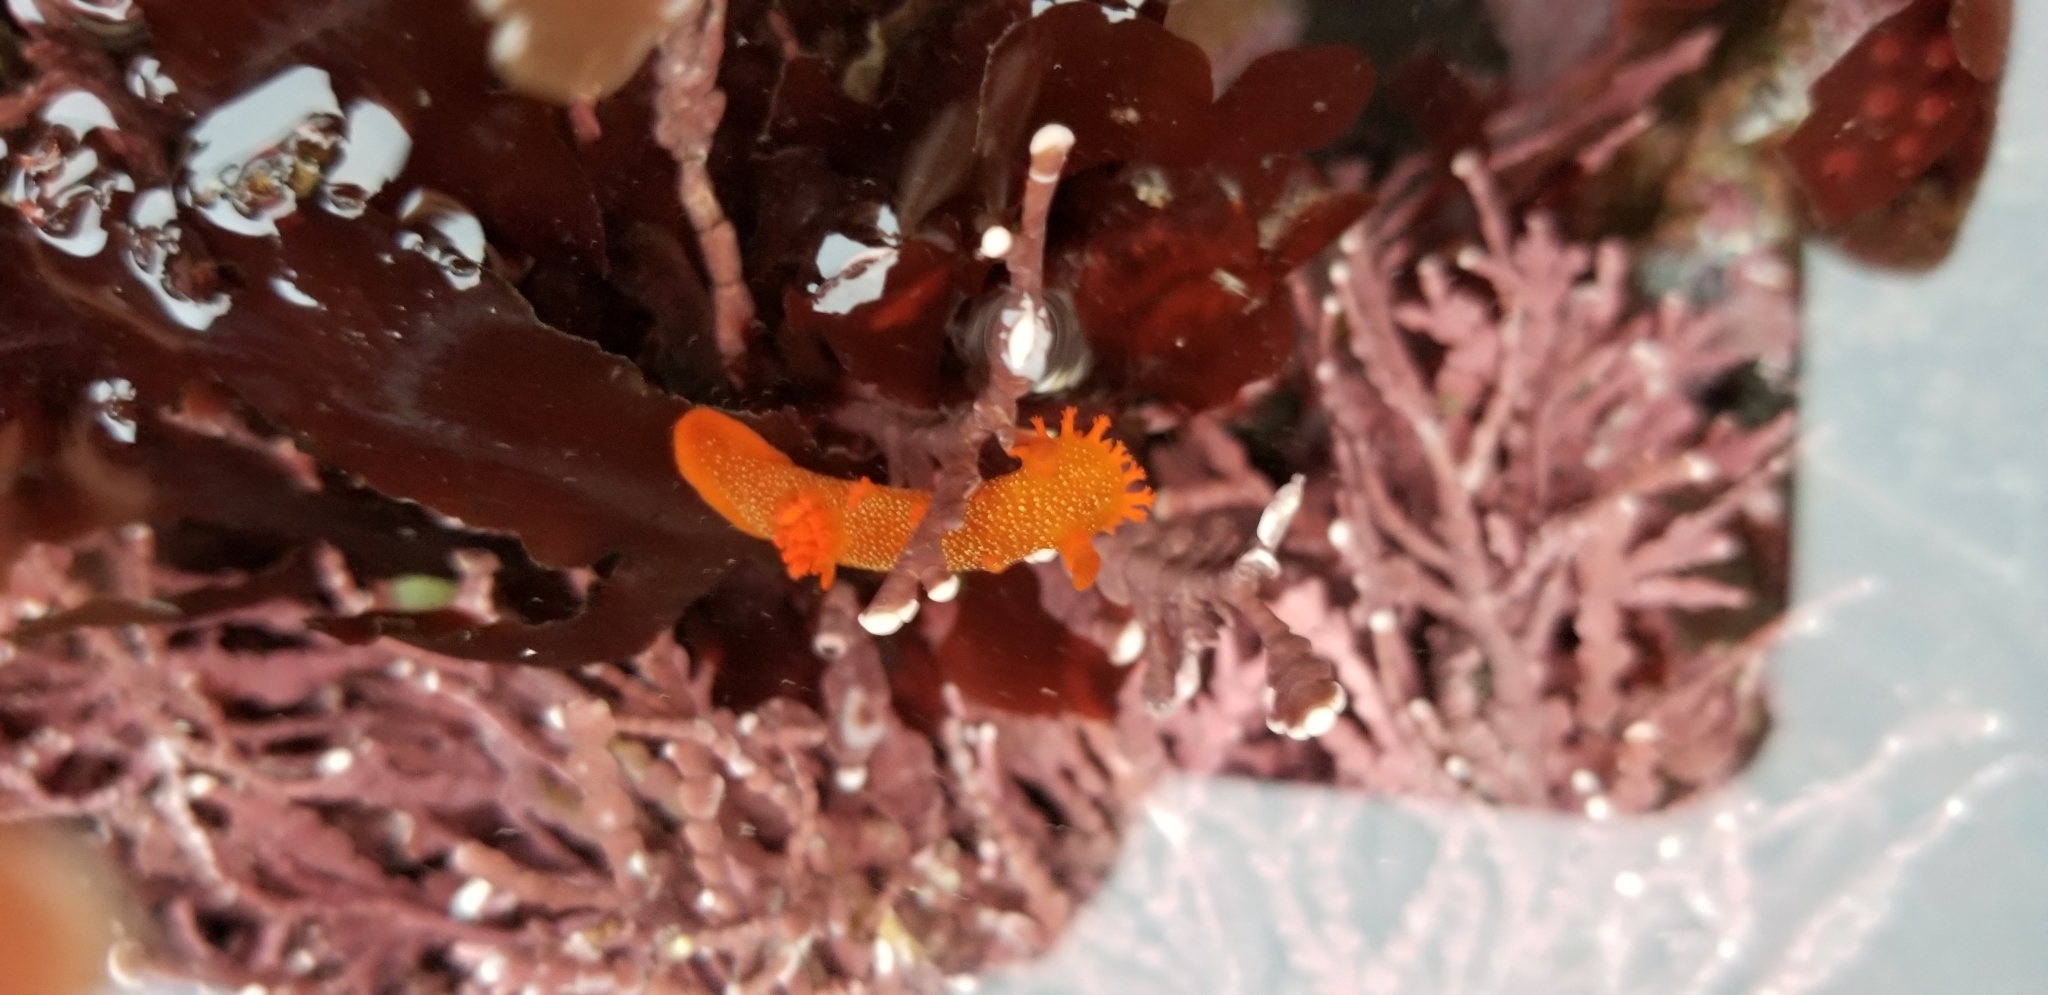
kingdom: Animalia
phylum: Mollusca
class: Gastropoda
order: Nudibranchia
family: Polyceridae
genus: Triopha
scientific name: Triopha maculata
